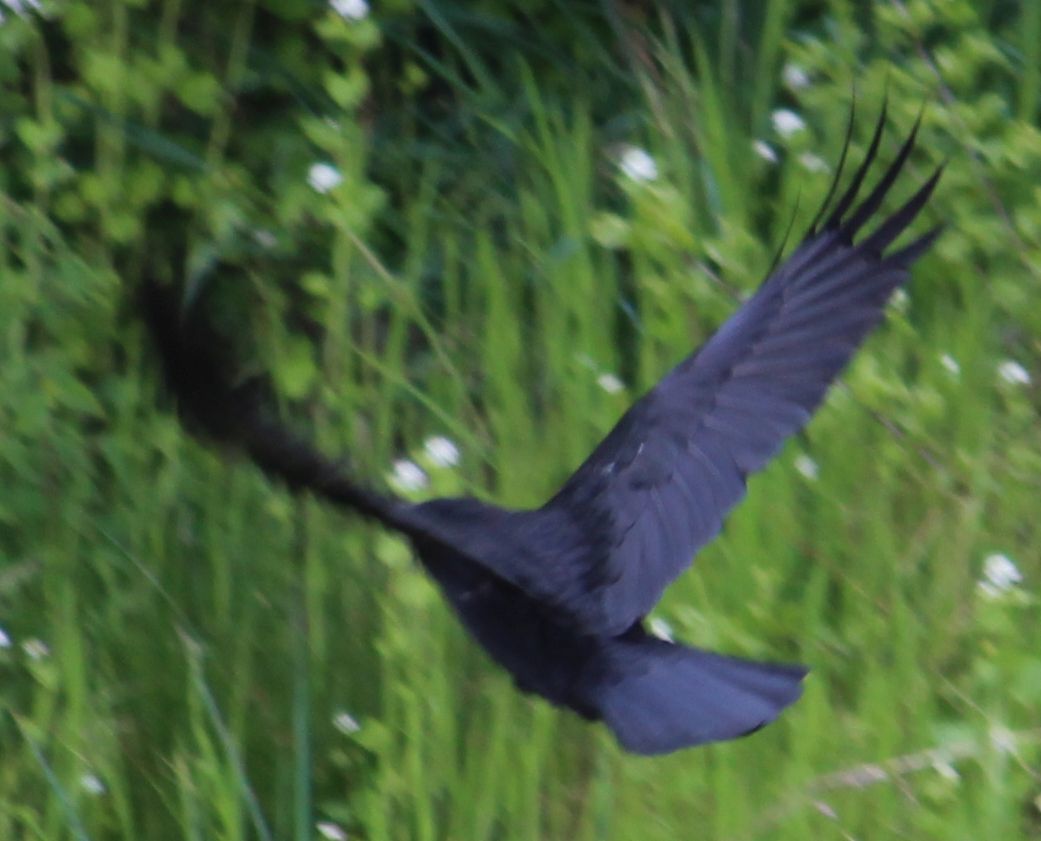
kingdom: Animalia
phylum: Chordata
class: Aves
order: Passeriformes
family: Corvidae
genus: Corvus
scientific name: Corvus corone
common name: Carrion crow
